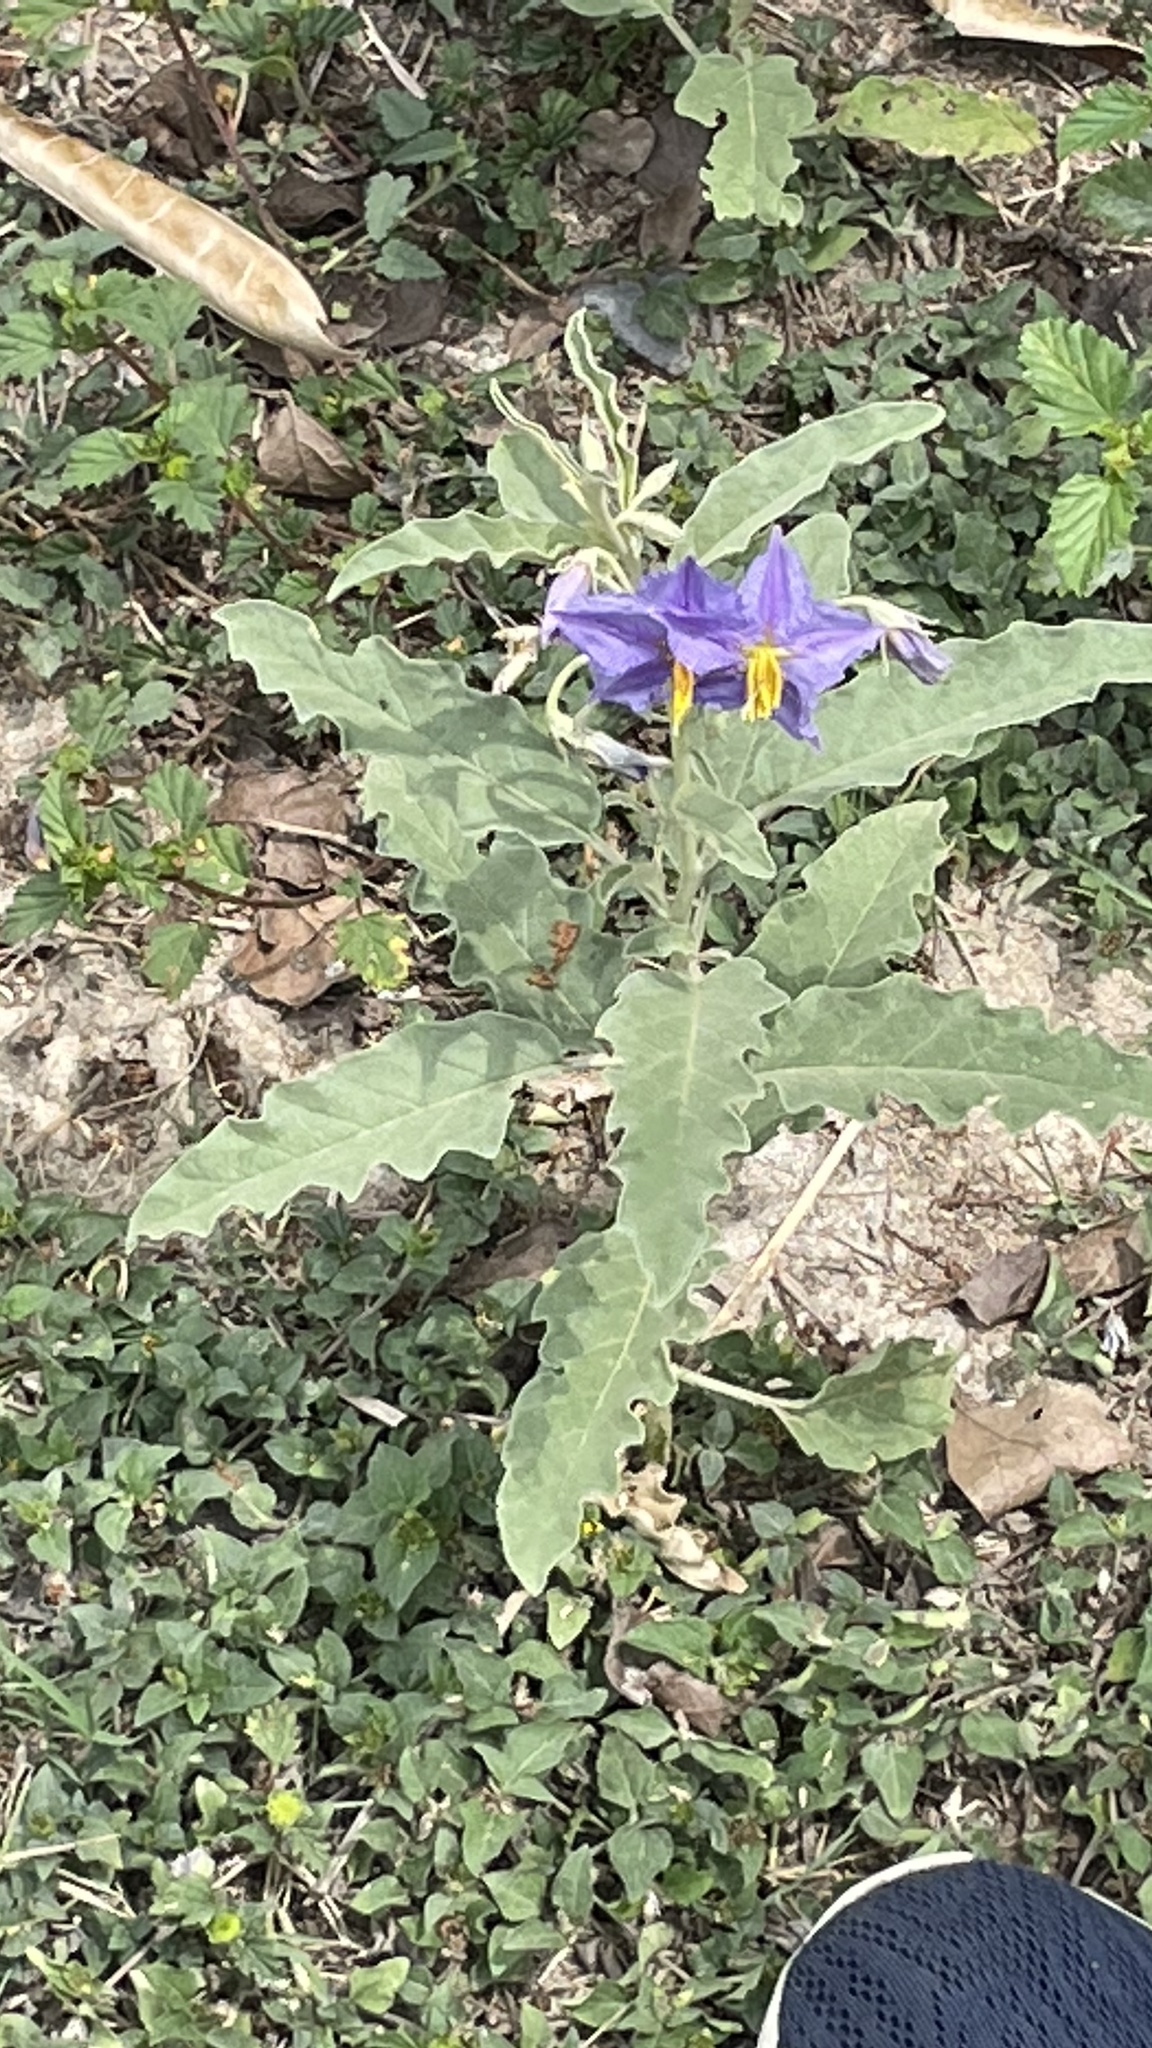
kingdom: Plantae
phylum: Tracheophyta
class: Magnoliopsida
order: Solanales
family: Solanaceae
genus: Solanum
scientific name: Solanum elaeagnifolium
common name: Silverleaf nightshade
